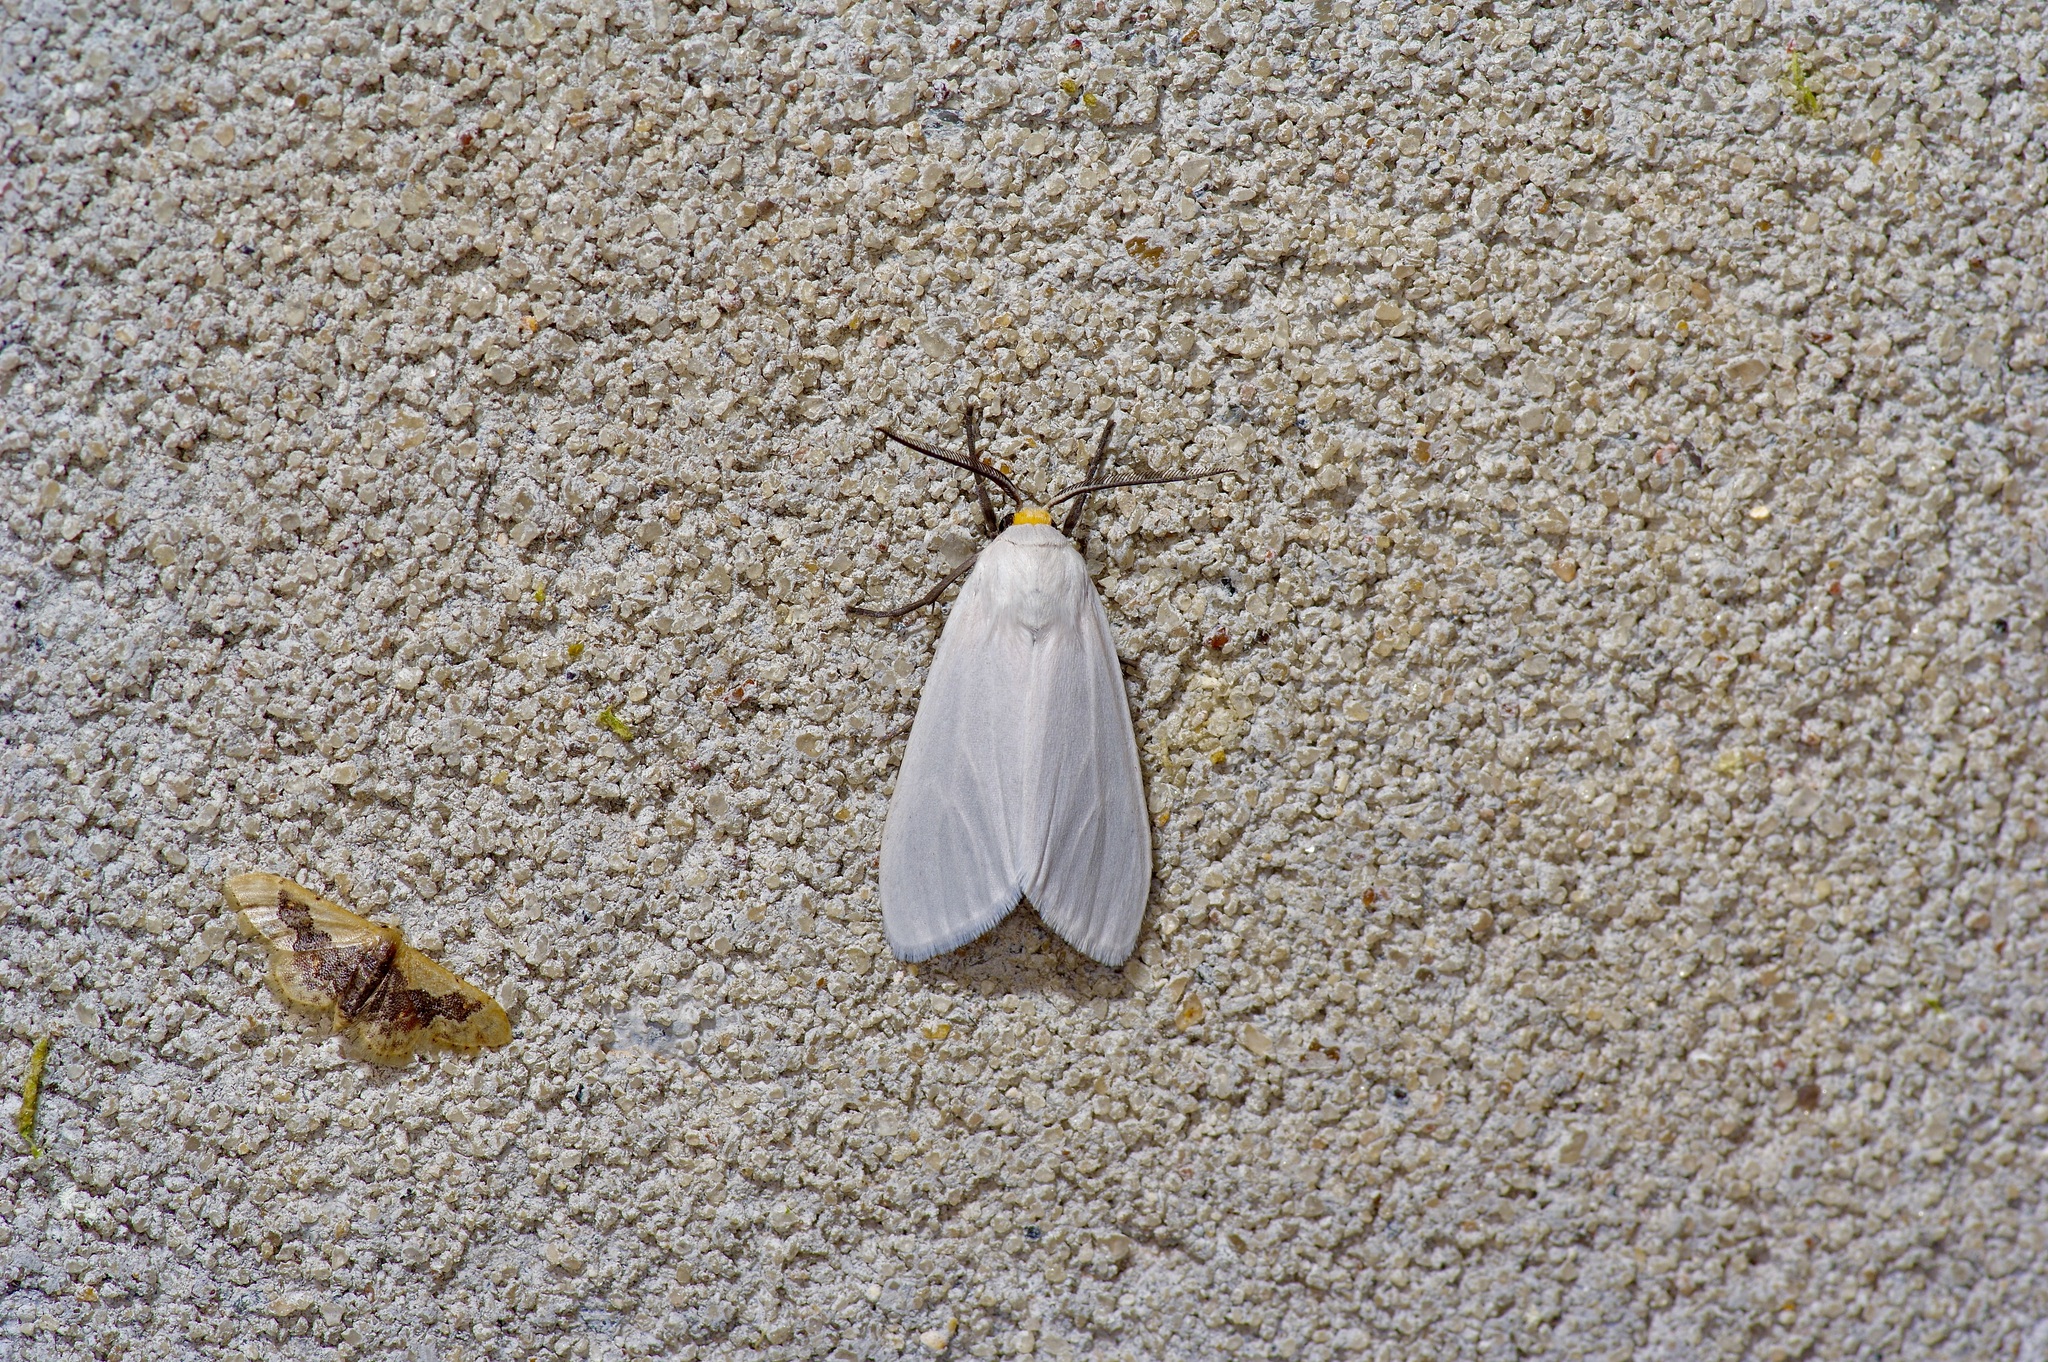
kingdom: Animalia
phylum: Arthropoda
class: Insecta
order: Lepidoptera
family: Erebidae
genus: Euchaetes
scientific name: Euchaetes helena
